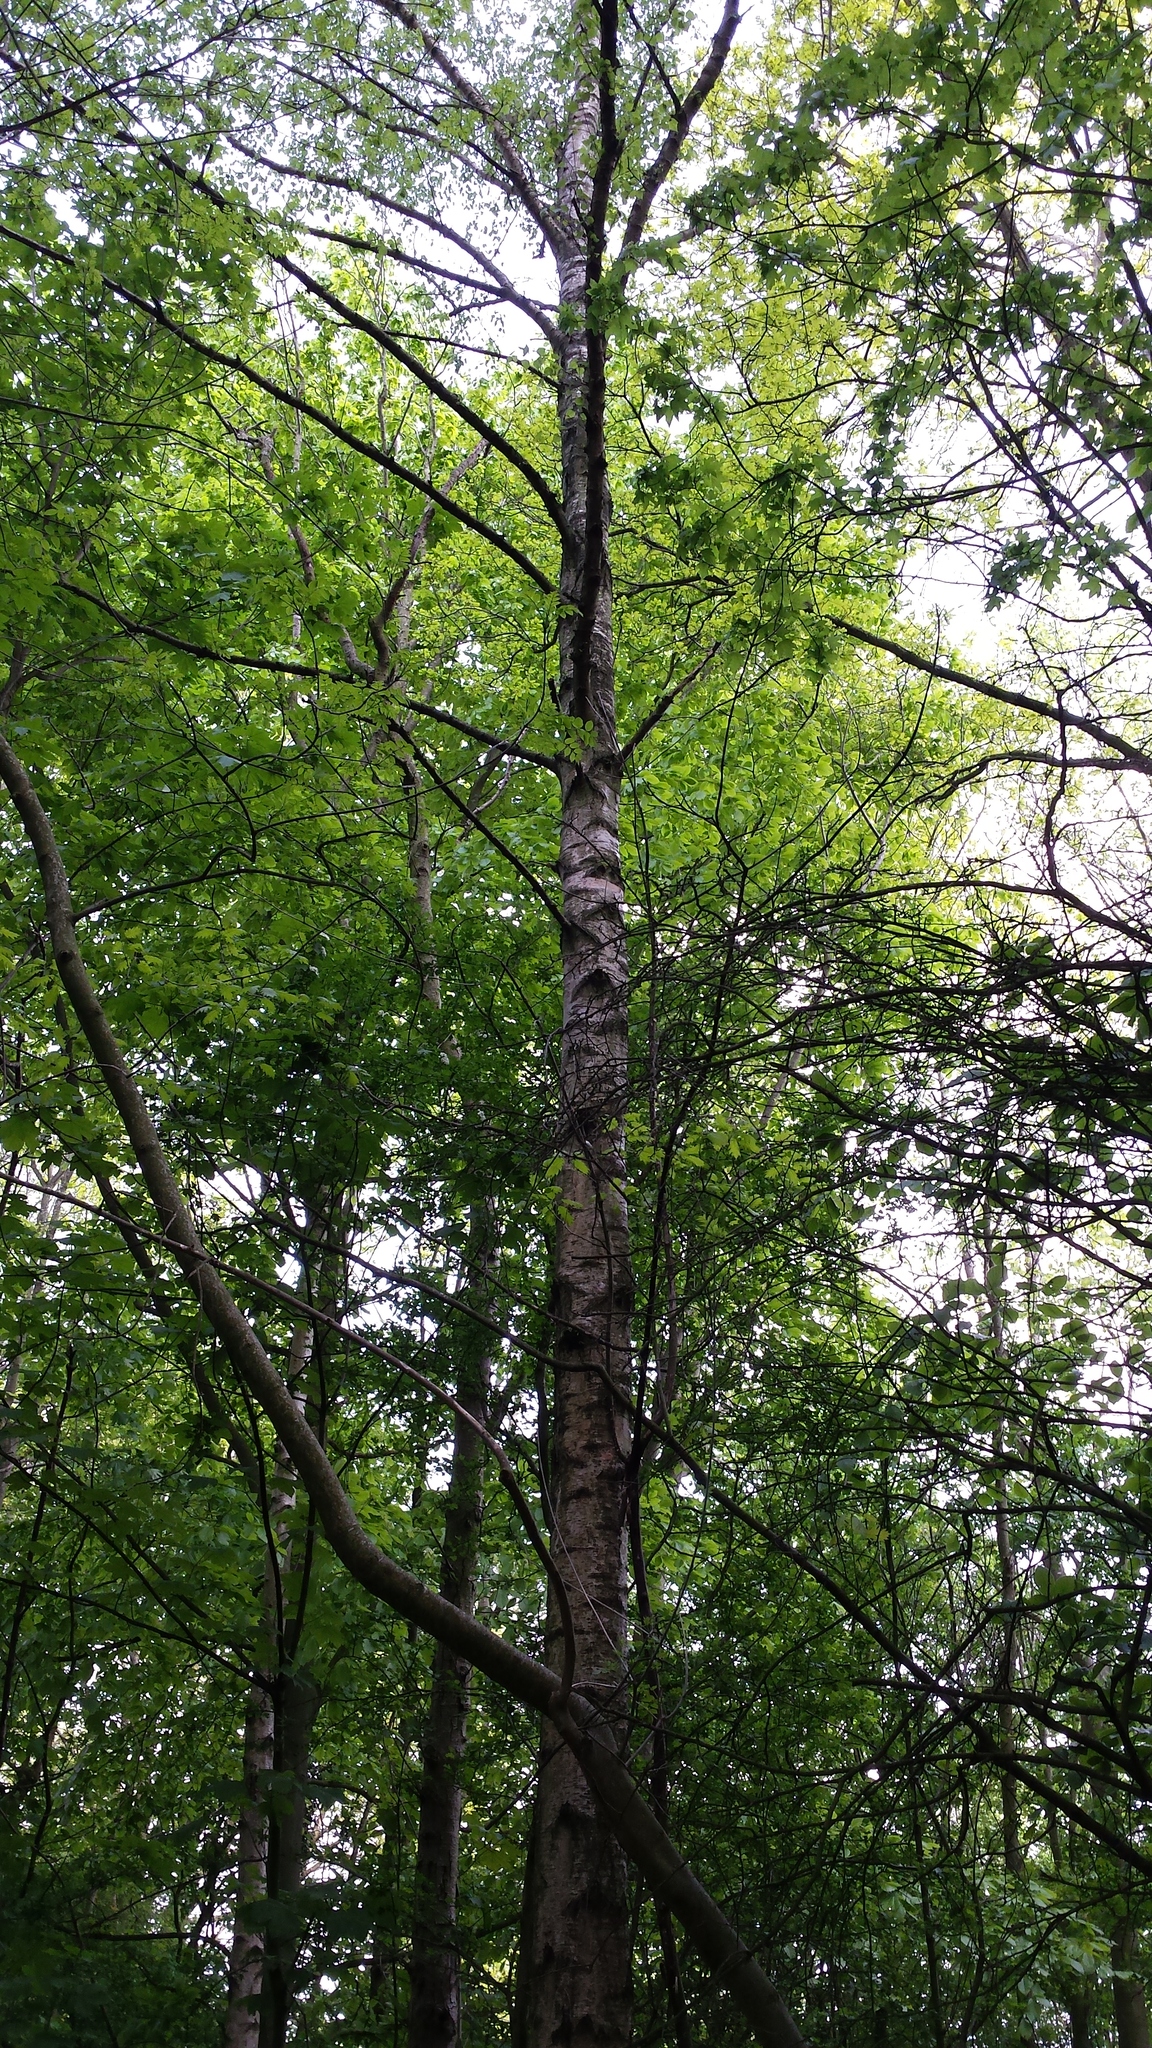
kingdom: Plantae
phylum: Tracheophyta
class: Magnoliopsida
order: Fagales
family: Betulaceae
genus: Betula
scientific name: Betula pendula
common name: Silver birch
